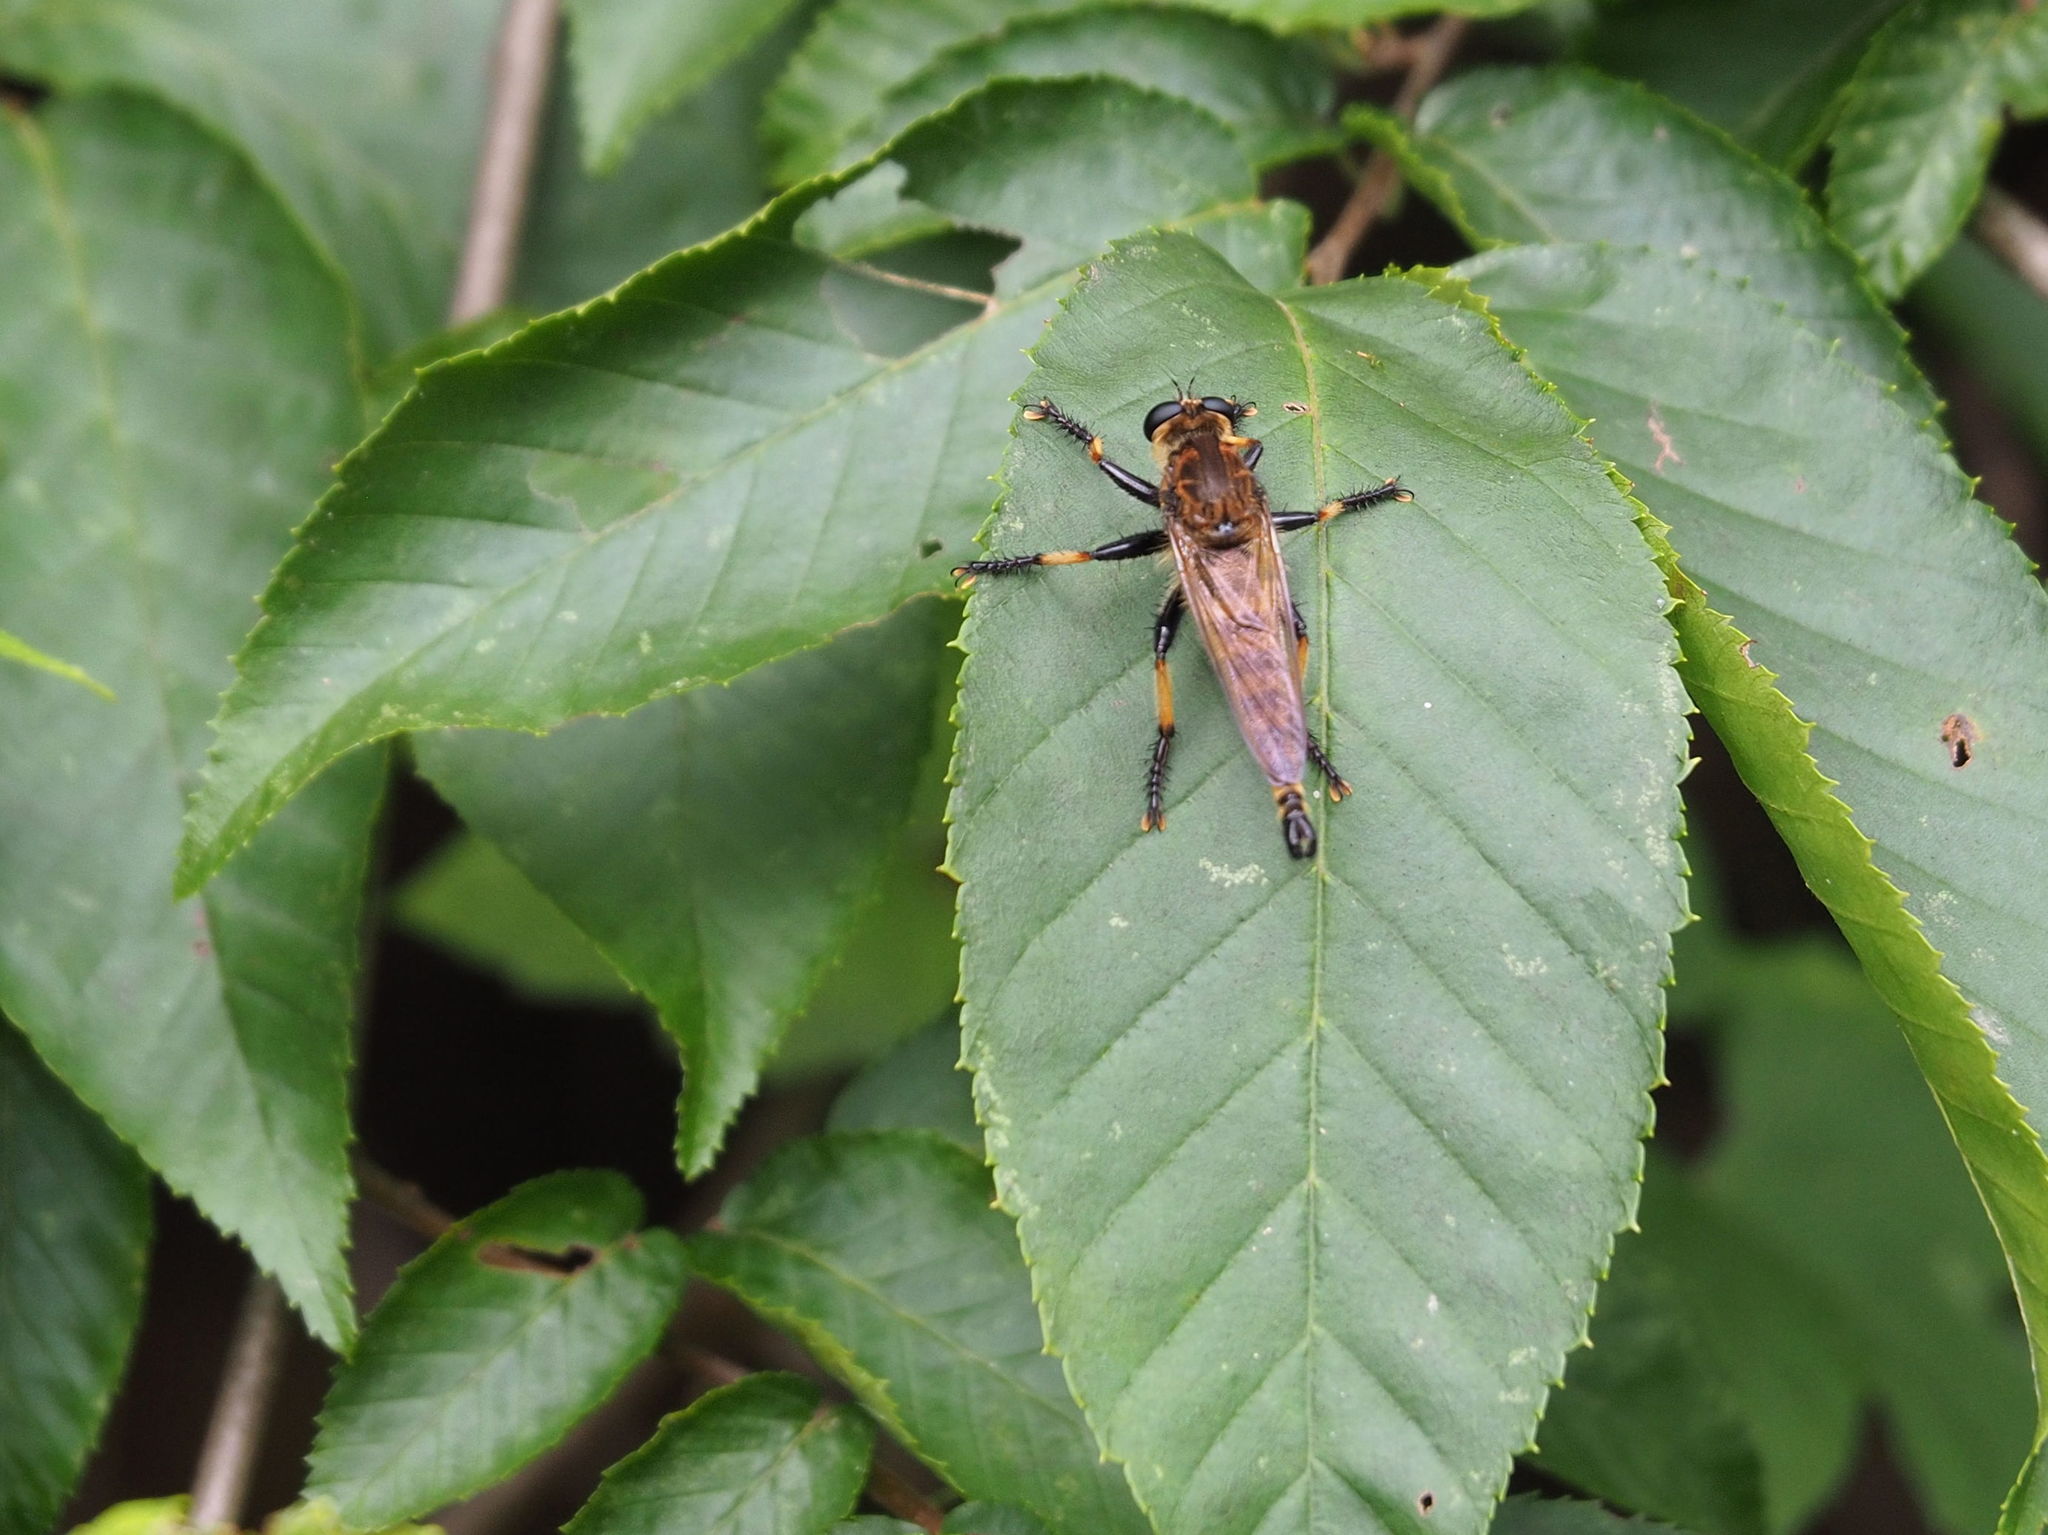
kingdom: Animalia
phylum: Arthropoda
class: Insecta
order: Diptera
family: Asilidae
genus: Promachus
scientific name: Promachus rufipes
